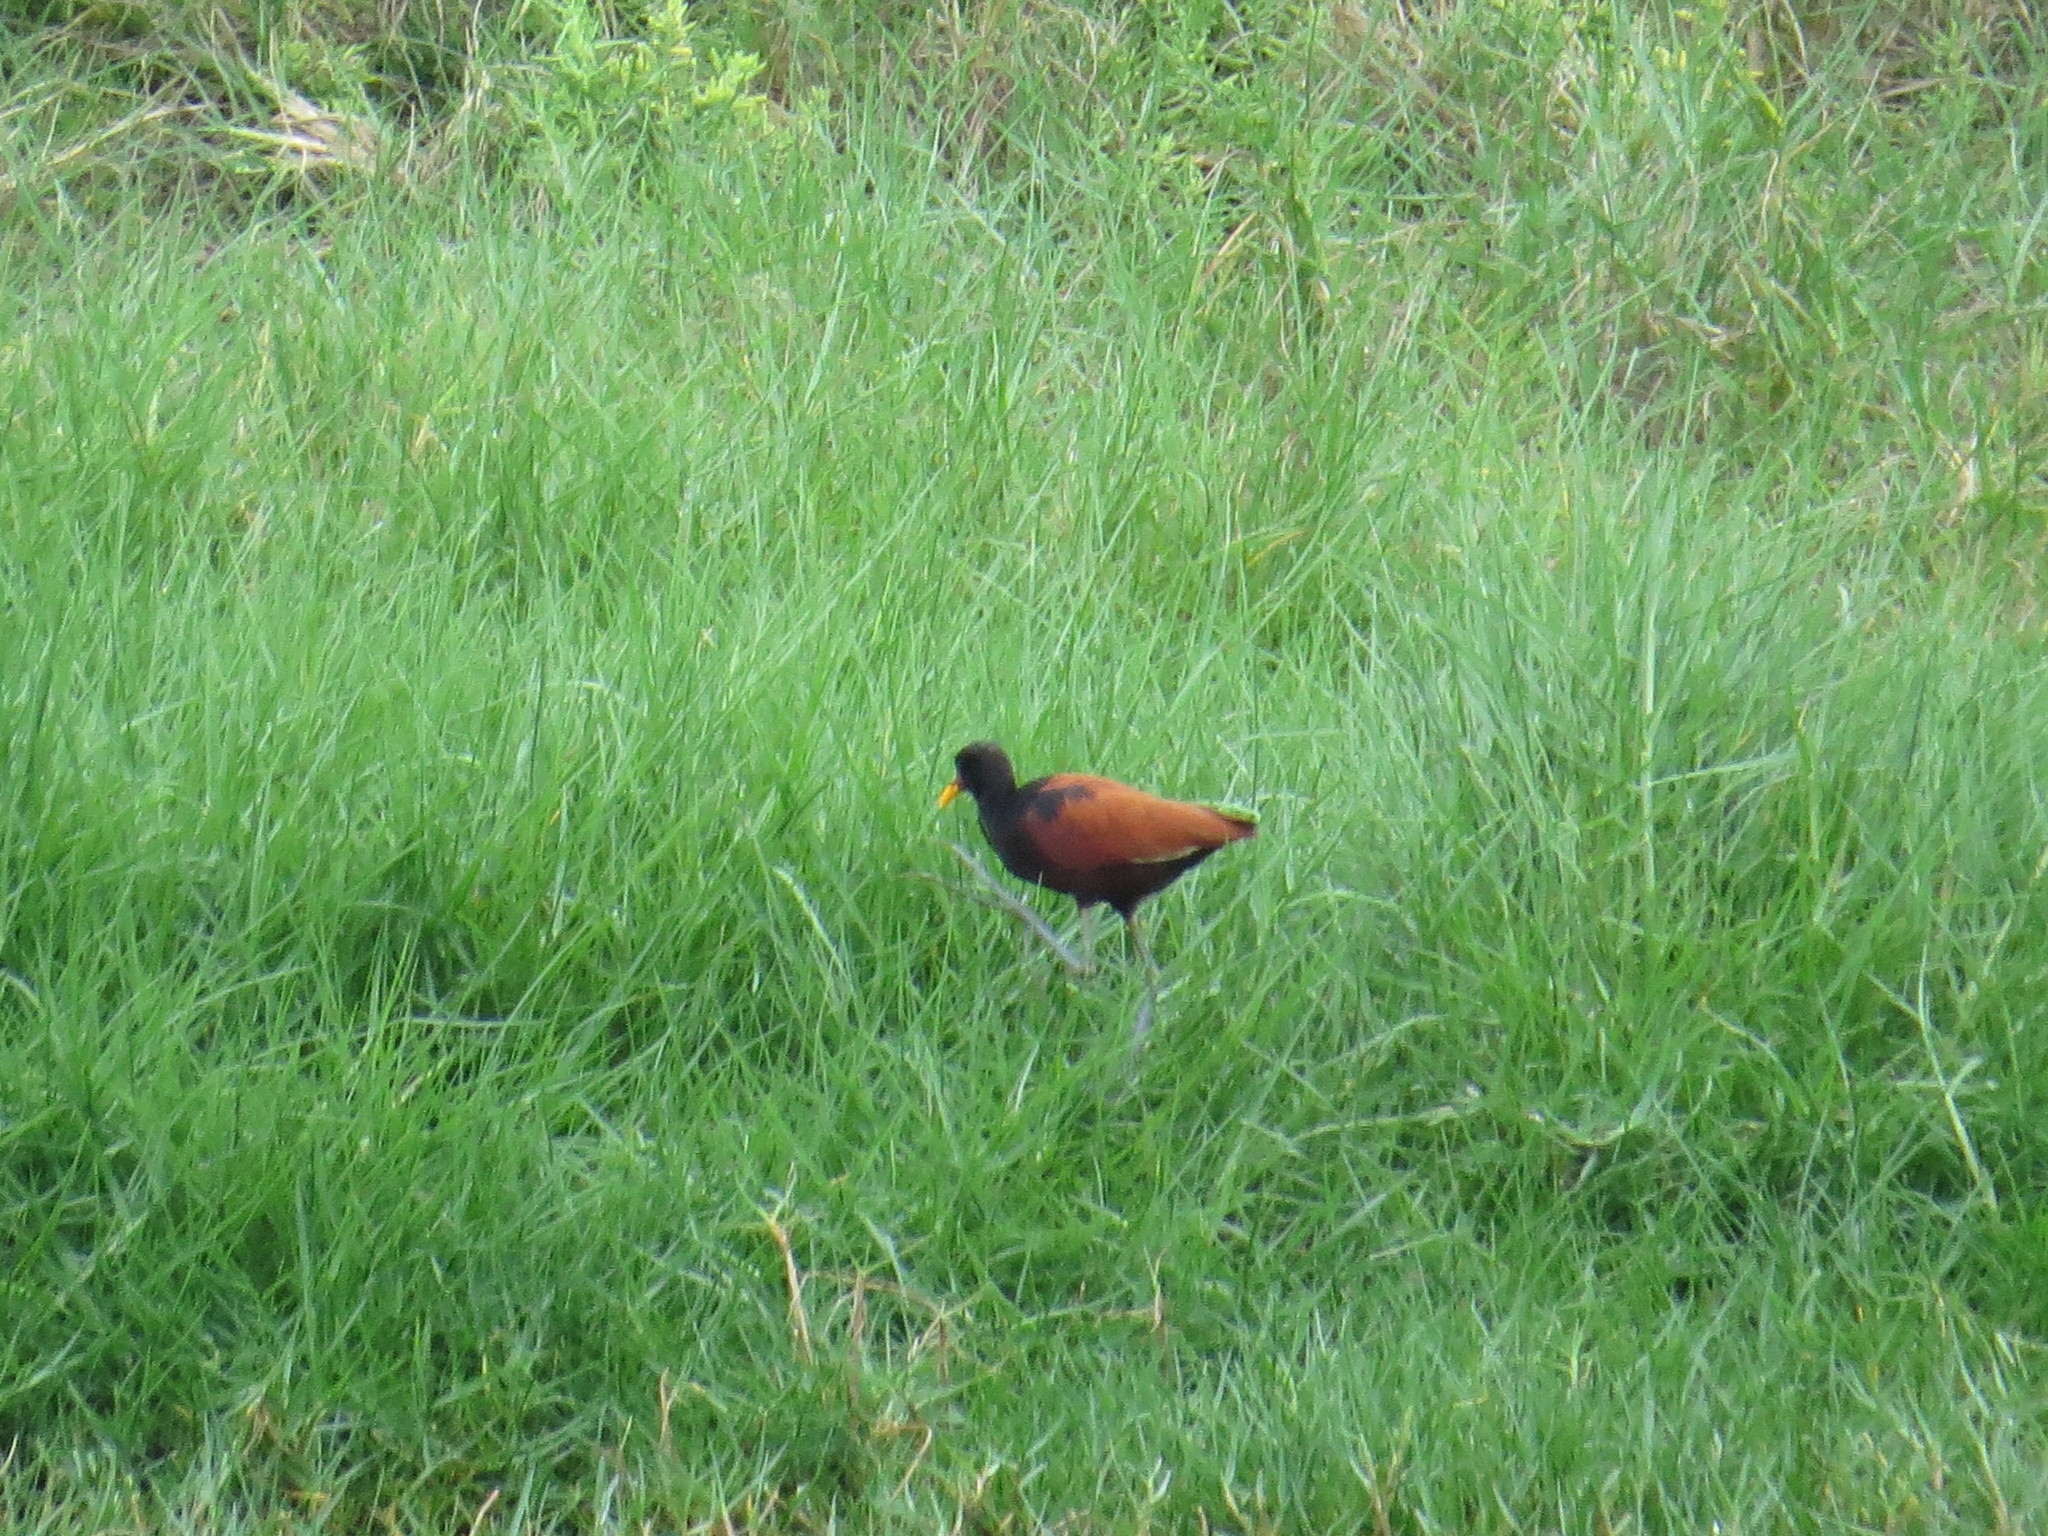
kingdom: Animalia
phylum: Chordata
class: Aves
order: Charadriiformes
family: Jacanidae
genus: Jacana
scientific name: Jacana jacana
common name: Wattled jacana
